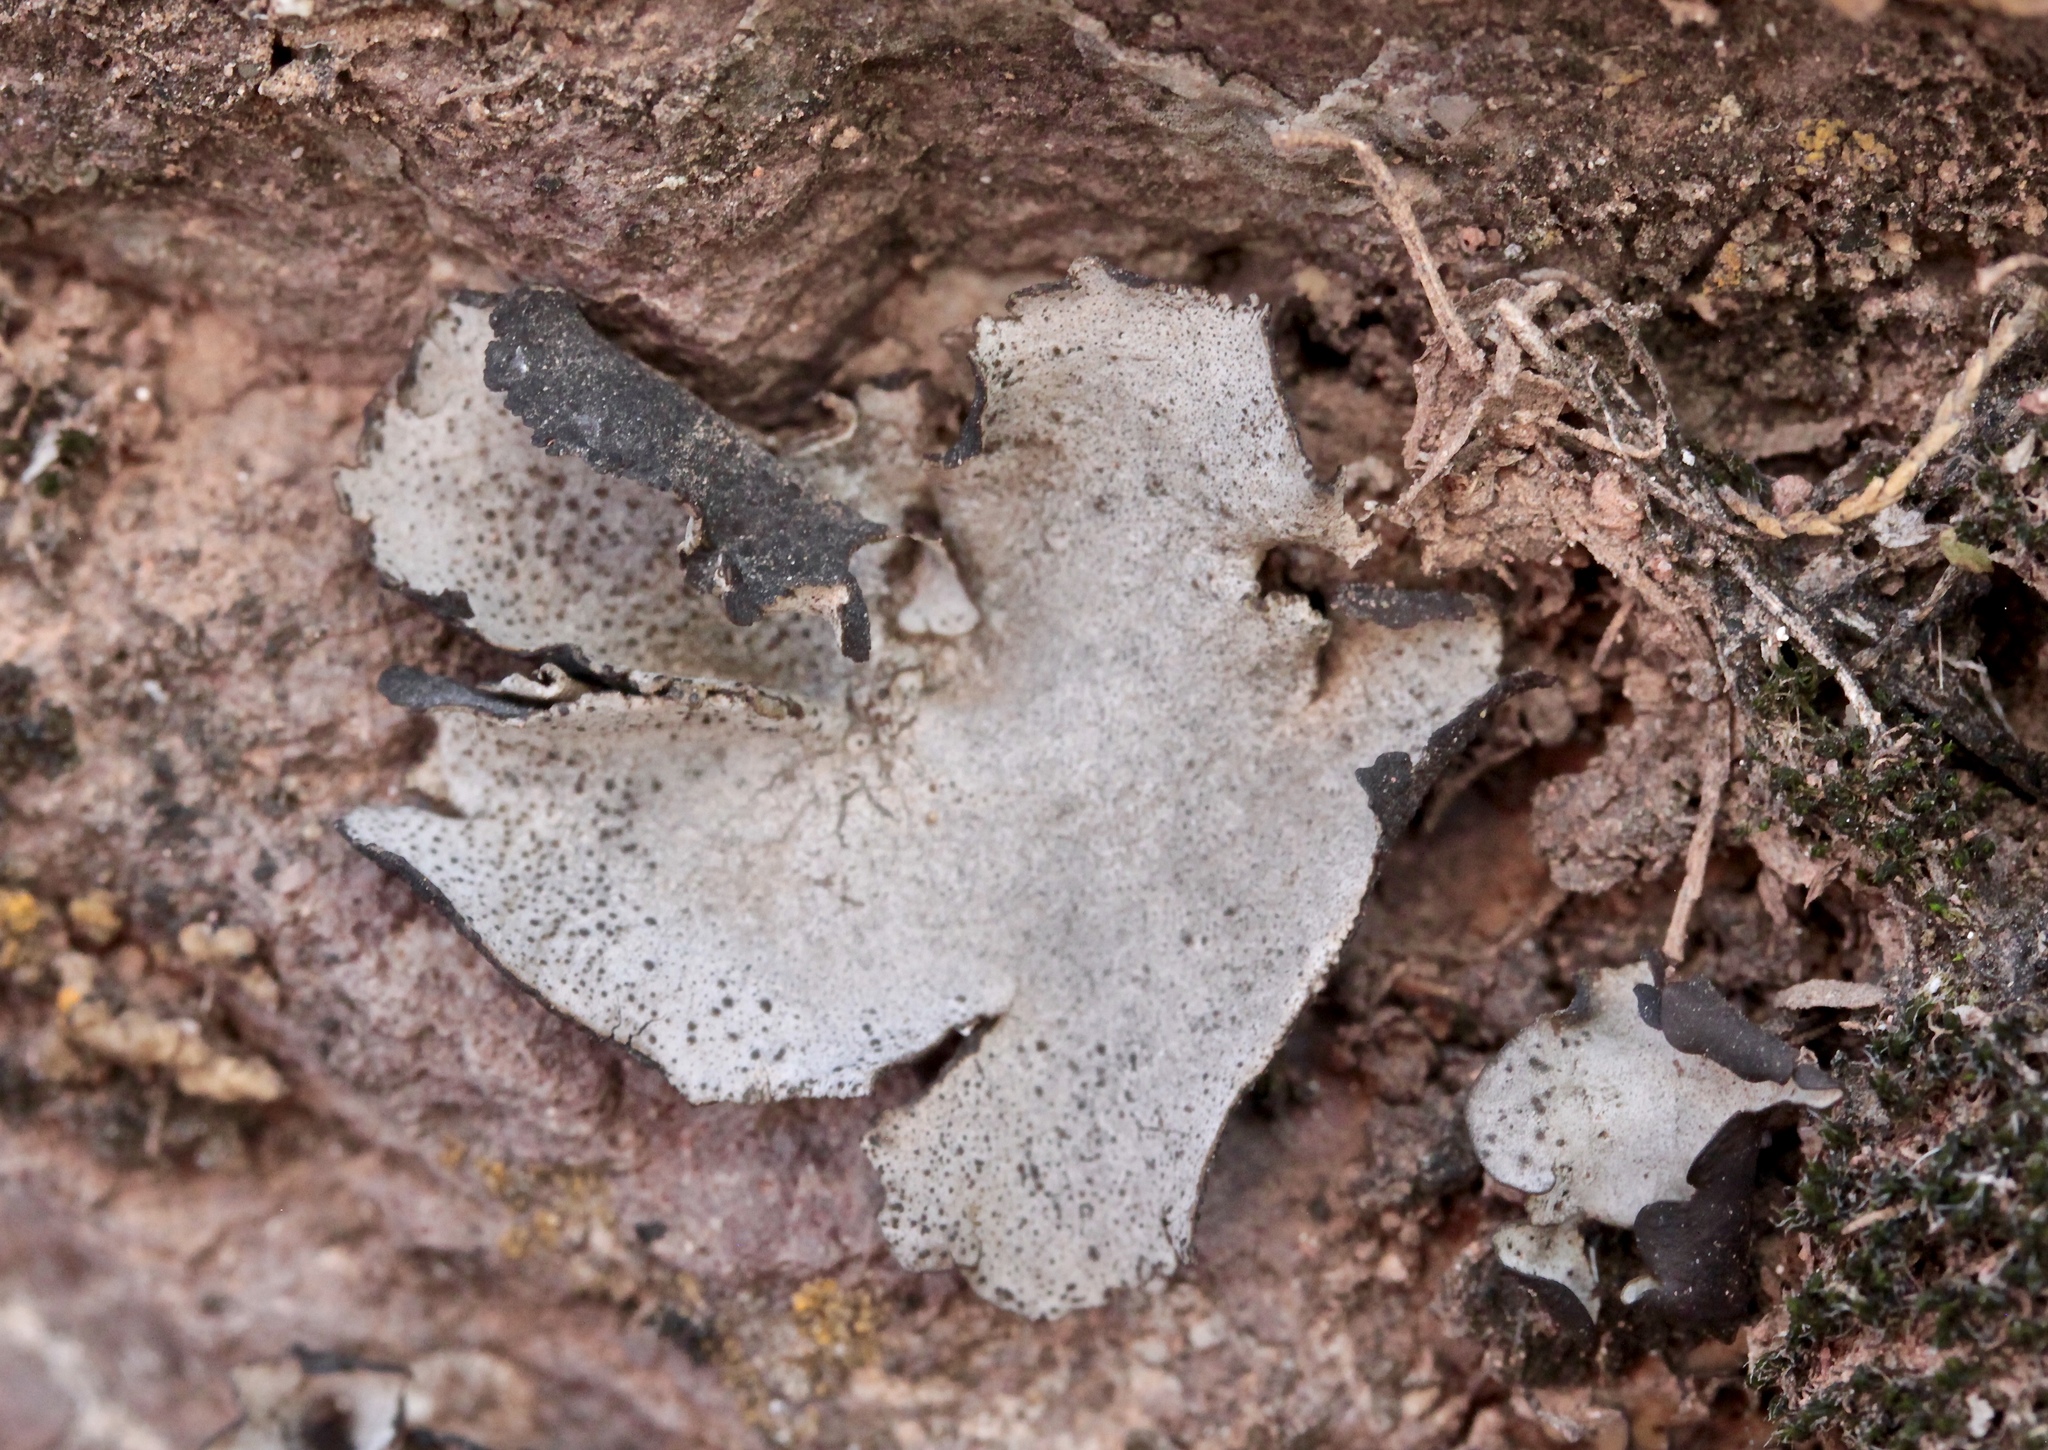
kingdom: Fungi
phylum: Ascomycota
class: Eurotiomycetes
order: Verrucariales
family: Verrucariaceae
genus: Dermatocarpon
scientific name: Dermatocarpon miniatum
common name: Leather lichen
